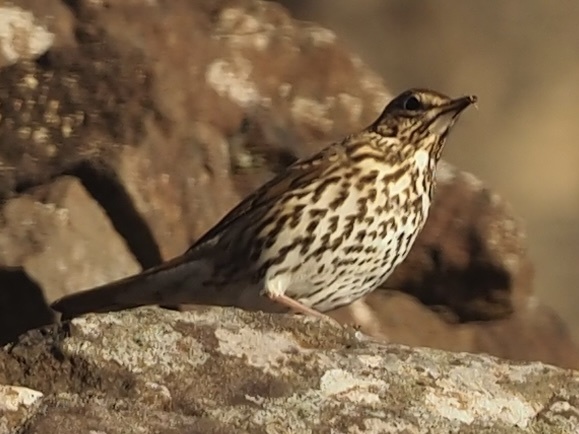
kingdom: Animalia
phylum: Chordata
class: Aves
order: Passeriformes
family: Turdidae
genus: Turdus
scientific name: Turdus philomelos
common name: Song thrush
